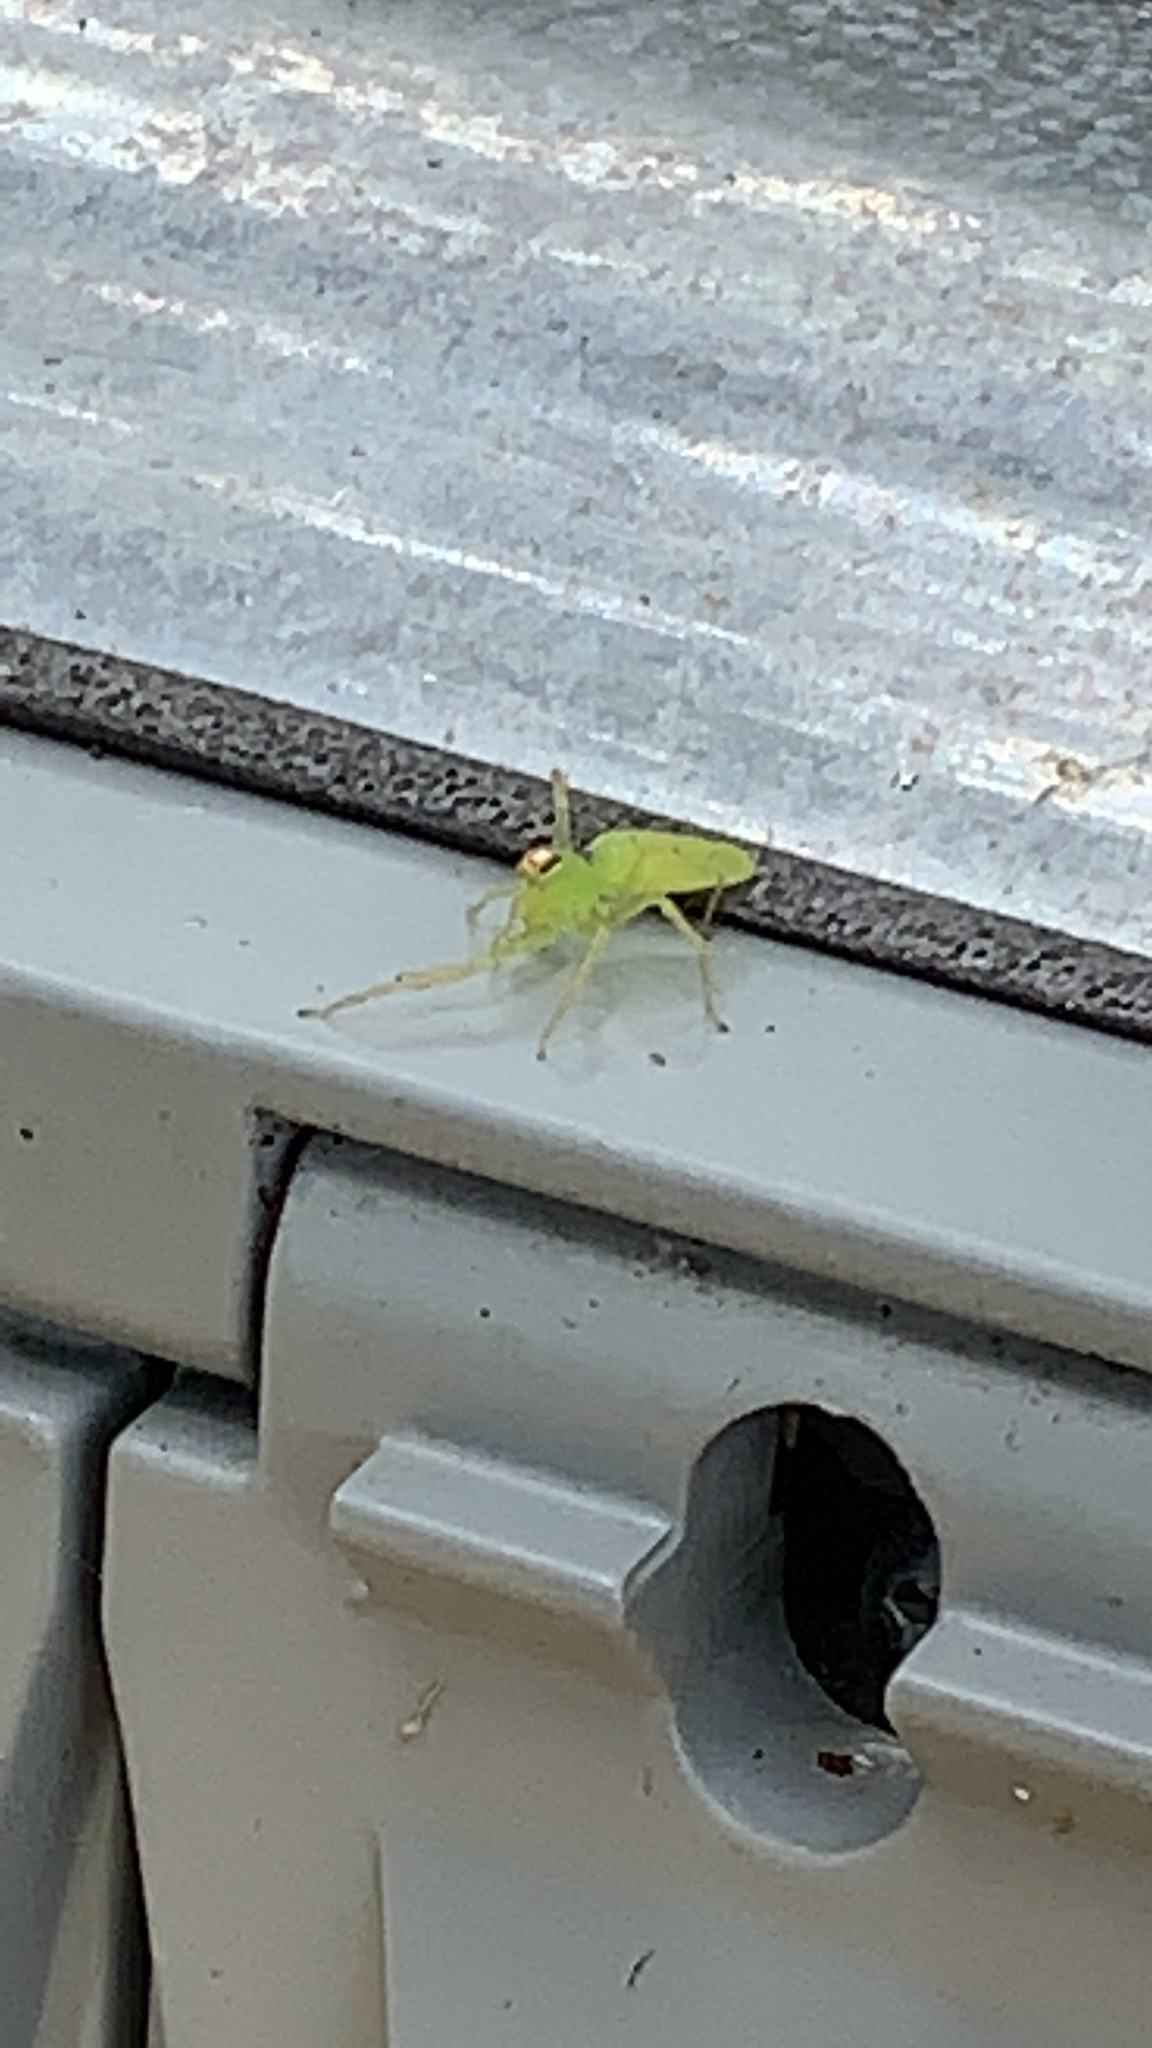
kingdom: Animalia
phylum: Arthropoda
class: Arachnida
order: Araneae
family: Salticidae
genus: Lyssomanes
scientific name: Lyssomanes viridis
